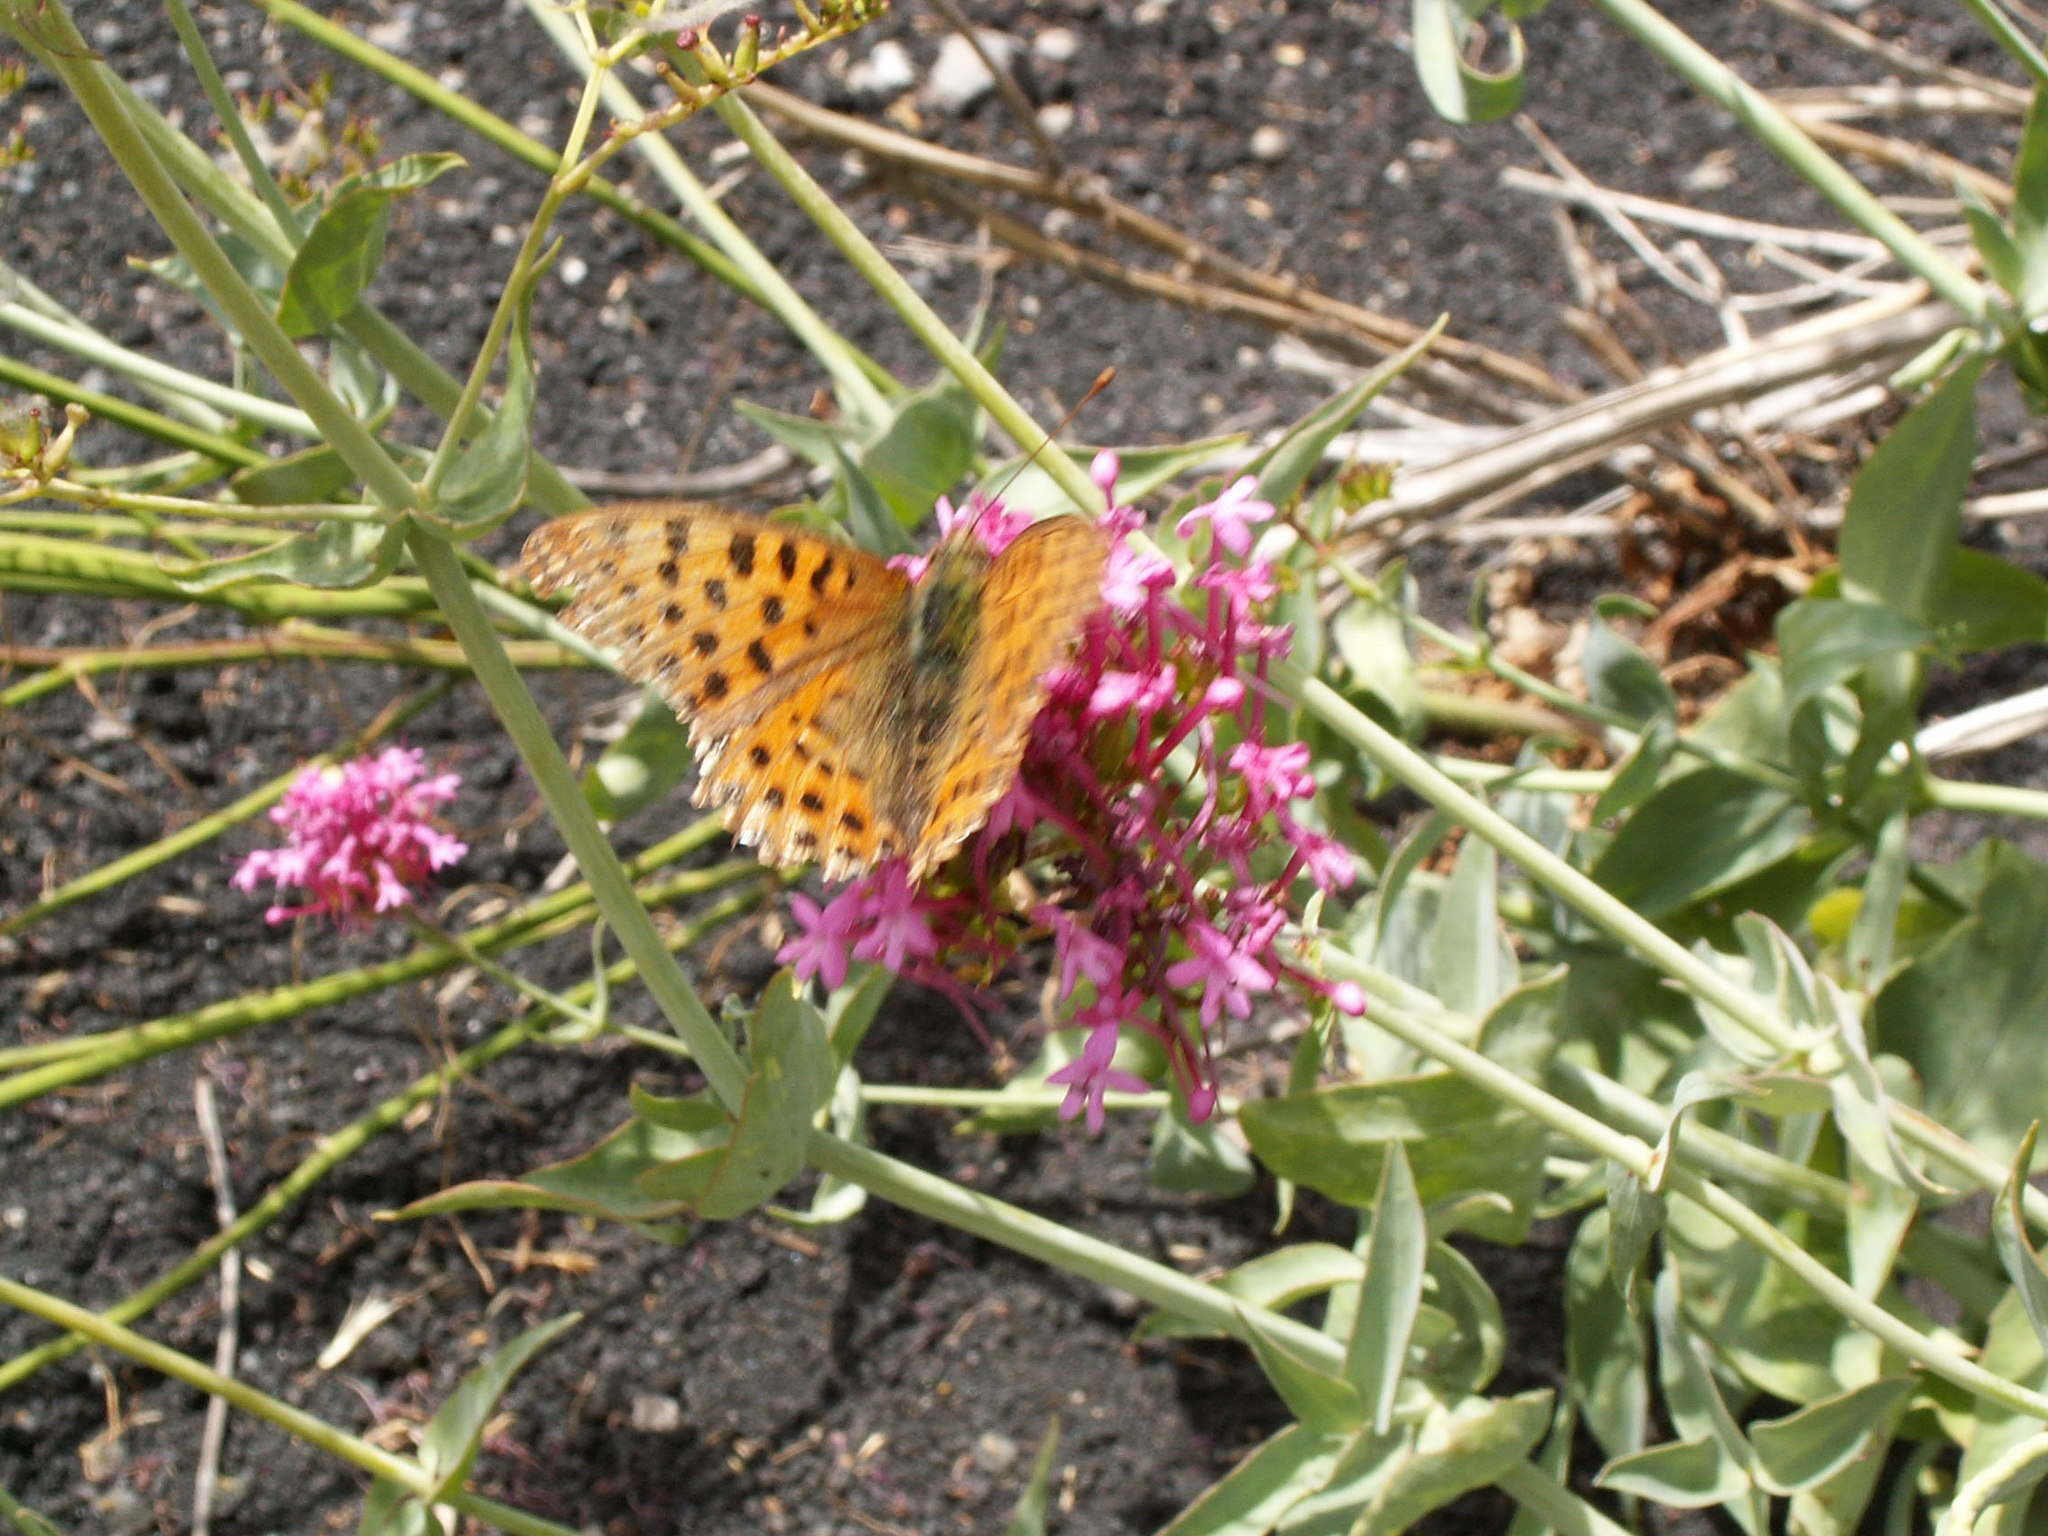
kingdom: Animalia
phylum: Arthropoda
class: Insecta
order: Lepidoptera
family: Nymphalidae
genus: Issoria
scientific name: Issoria lathonia
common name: Queen of spain fritillary
